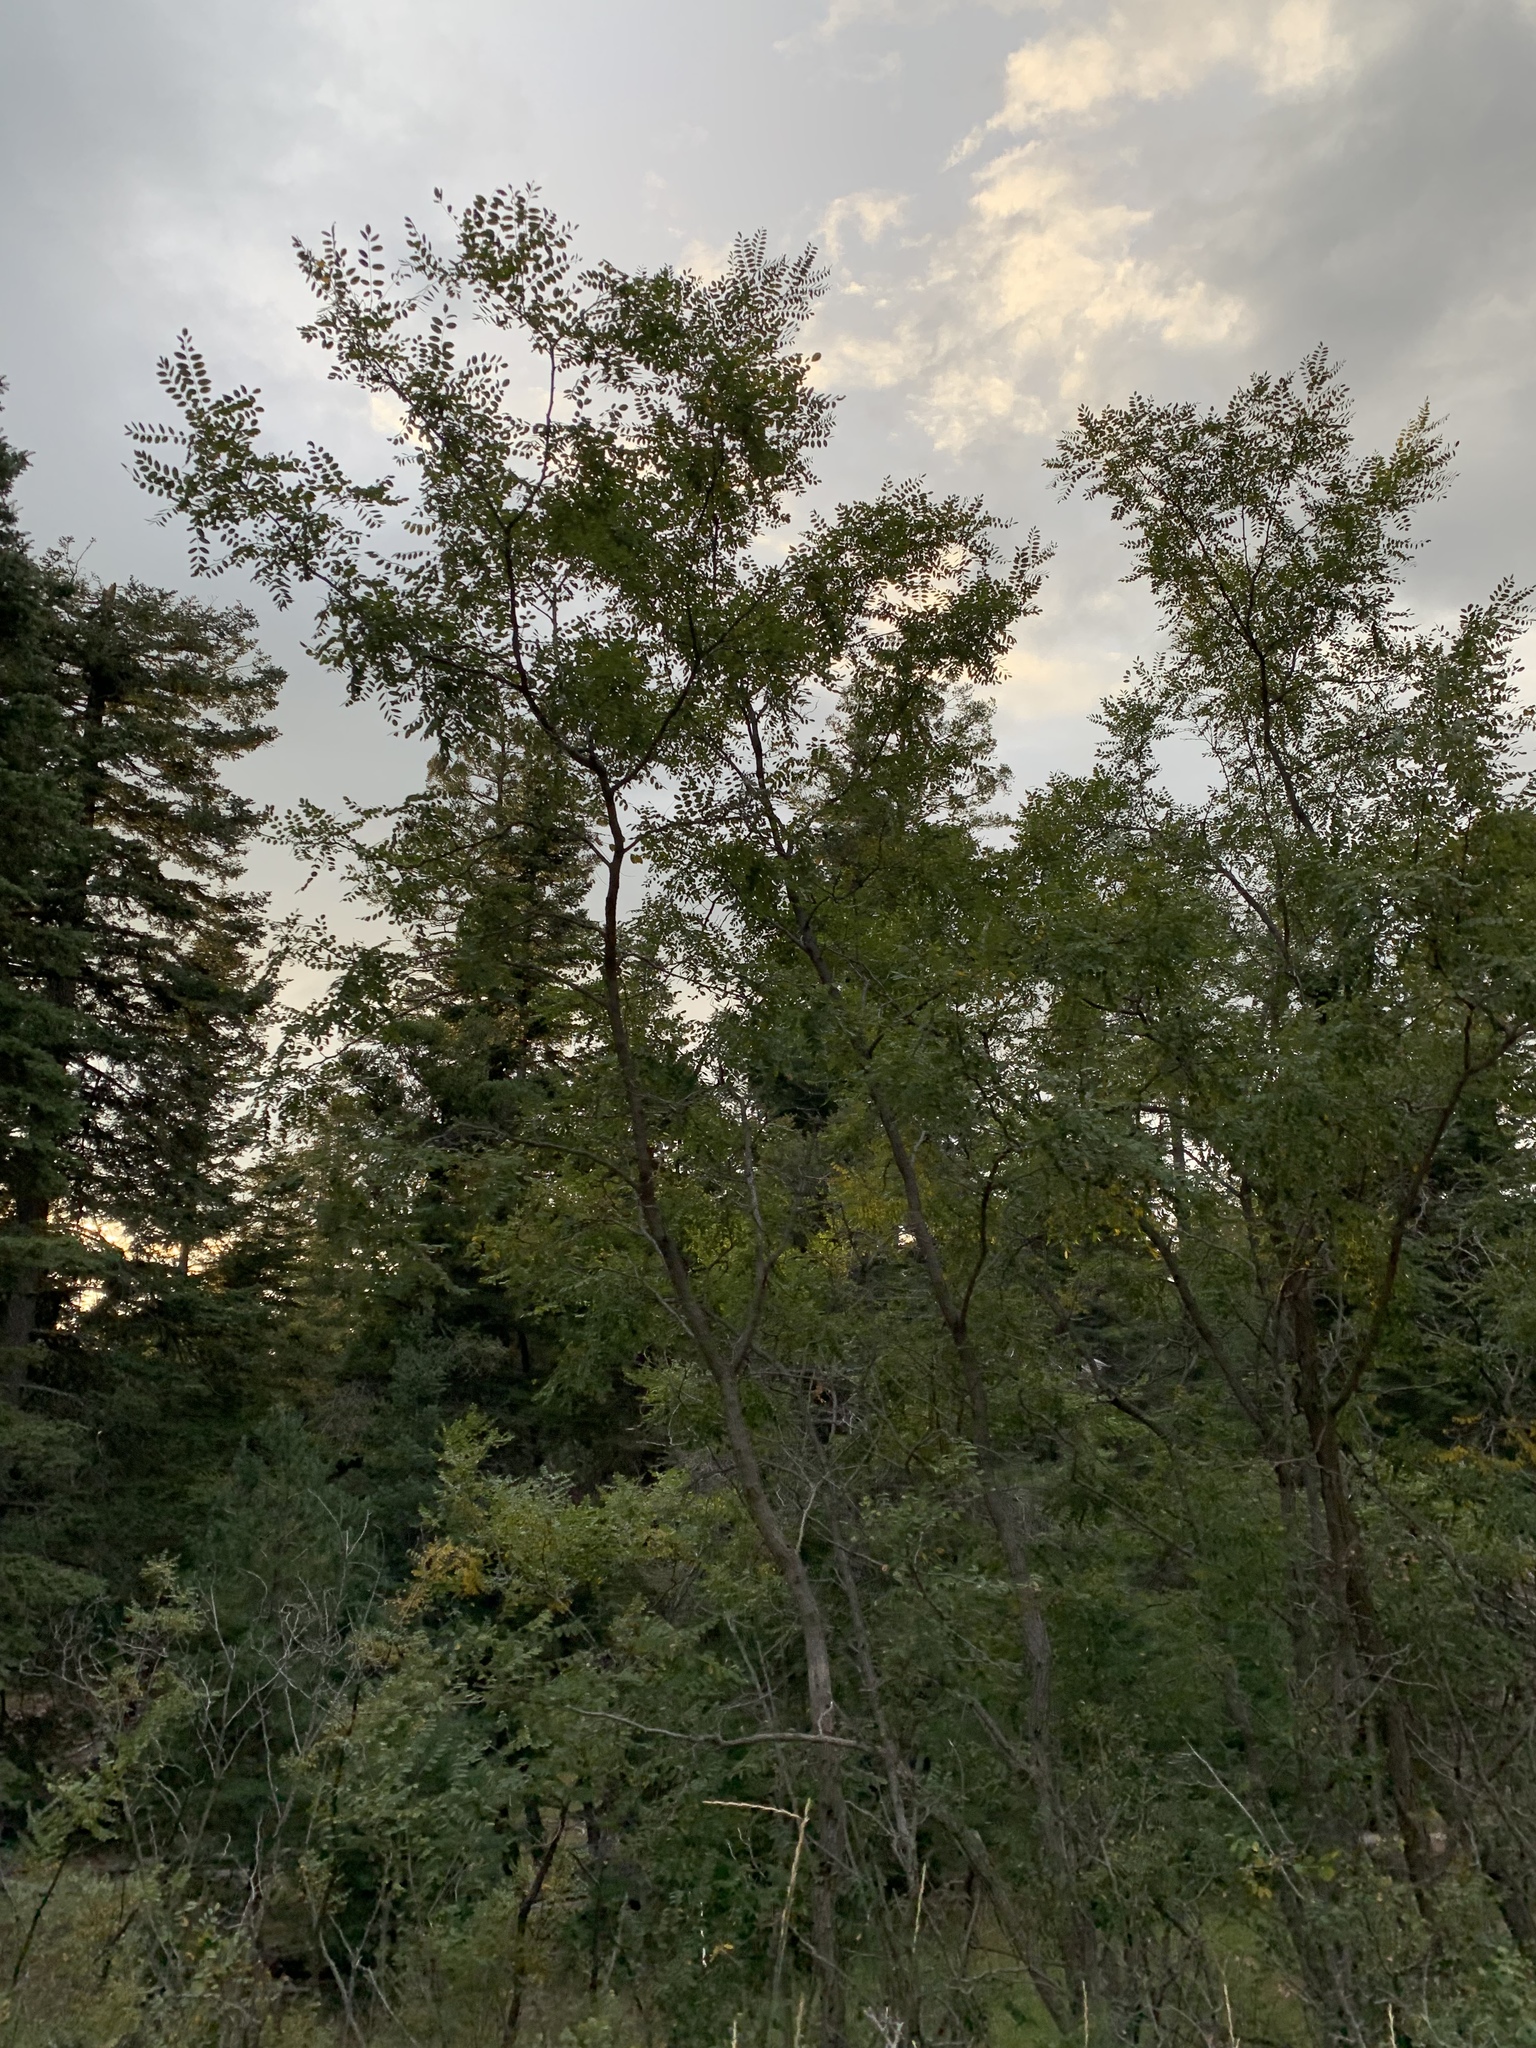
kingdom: Plantae
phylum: Tracheophyta
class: Magnoliopsida
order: Fabales
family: Fabaceae
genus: Robinia
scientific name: Robinia neomexicana
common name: New mexico locust
